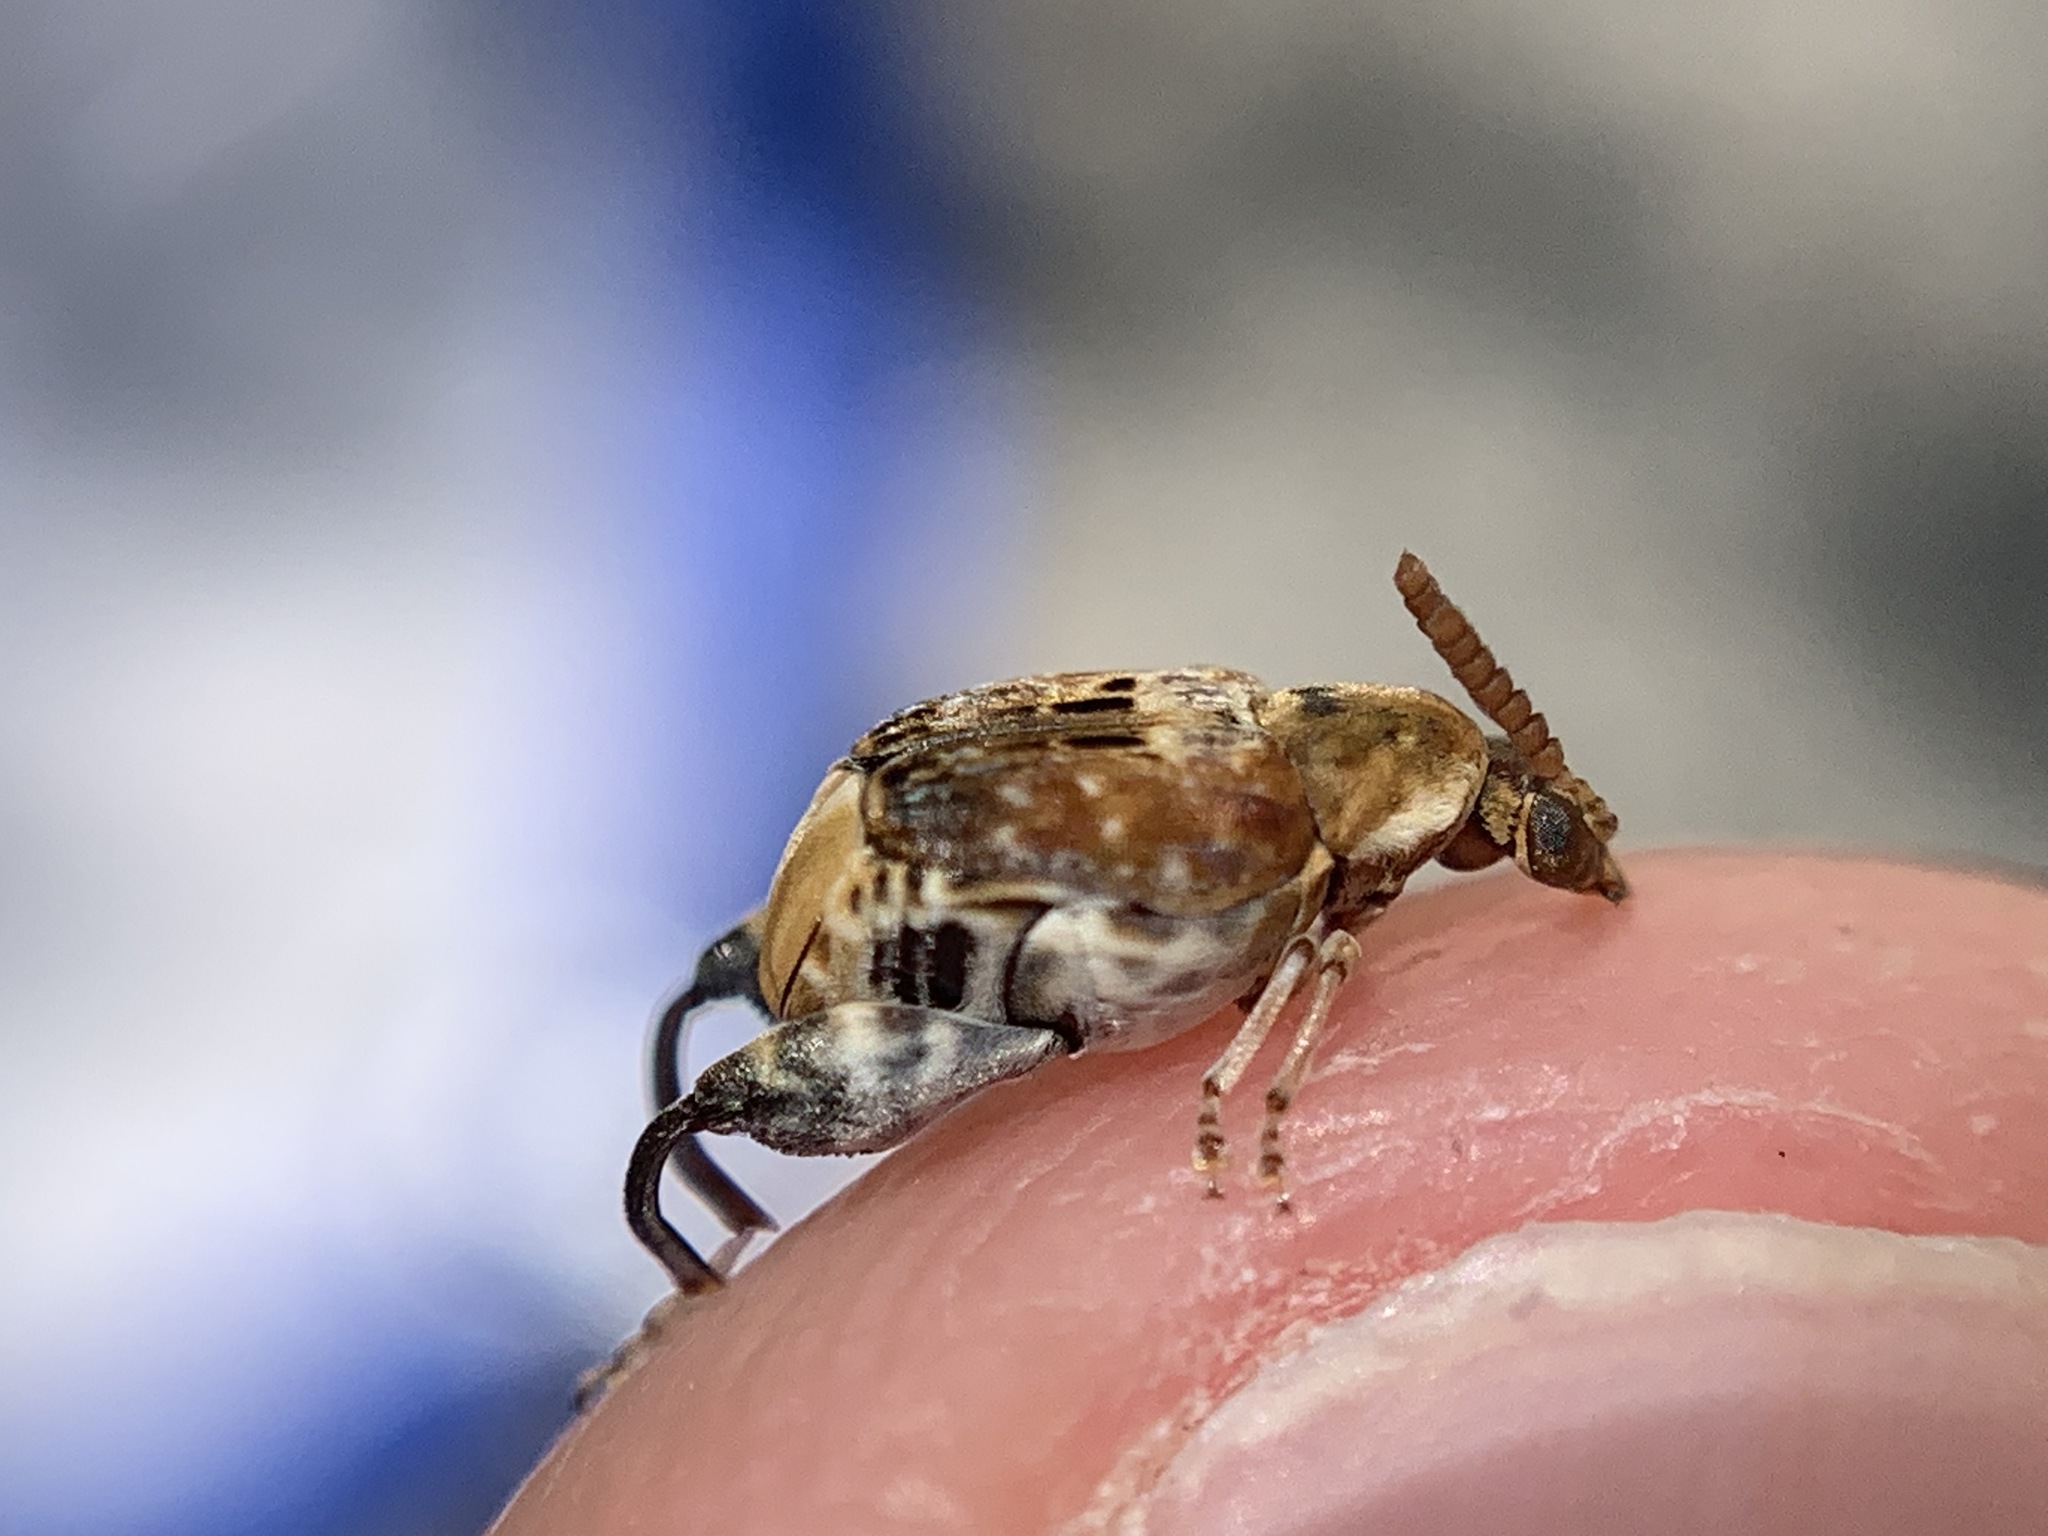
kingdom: Animalia
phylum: Arthropoda
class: Insecta
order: Coleoptera
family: Chrysomelidae
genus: Penthobruchus
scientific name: Penthobruchus
